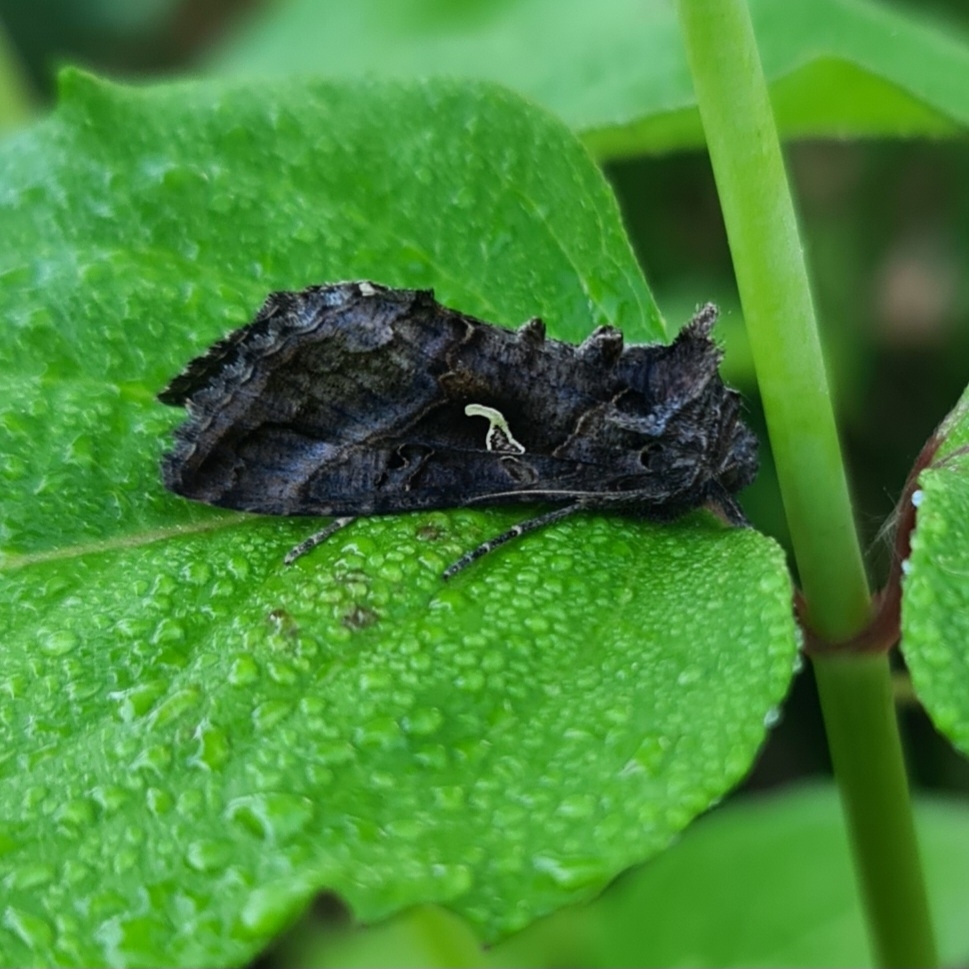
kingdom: Animalia
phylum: Arthropoda
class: Insecta
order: Lepidoptera
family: Noctuidae
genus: Autographa
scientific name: Autographa gamma
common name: Silver y
